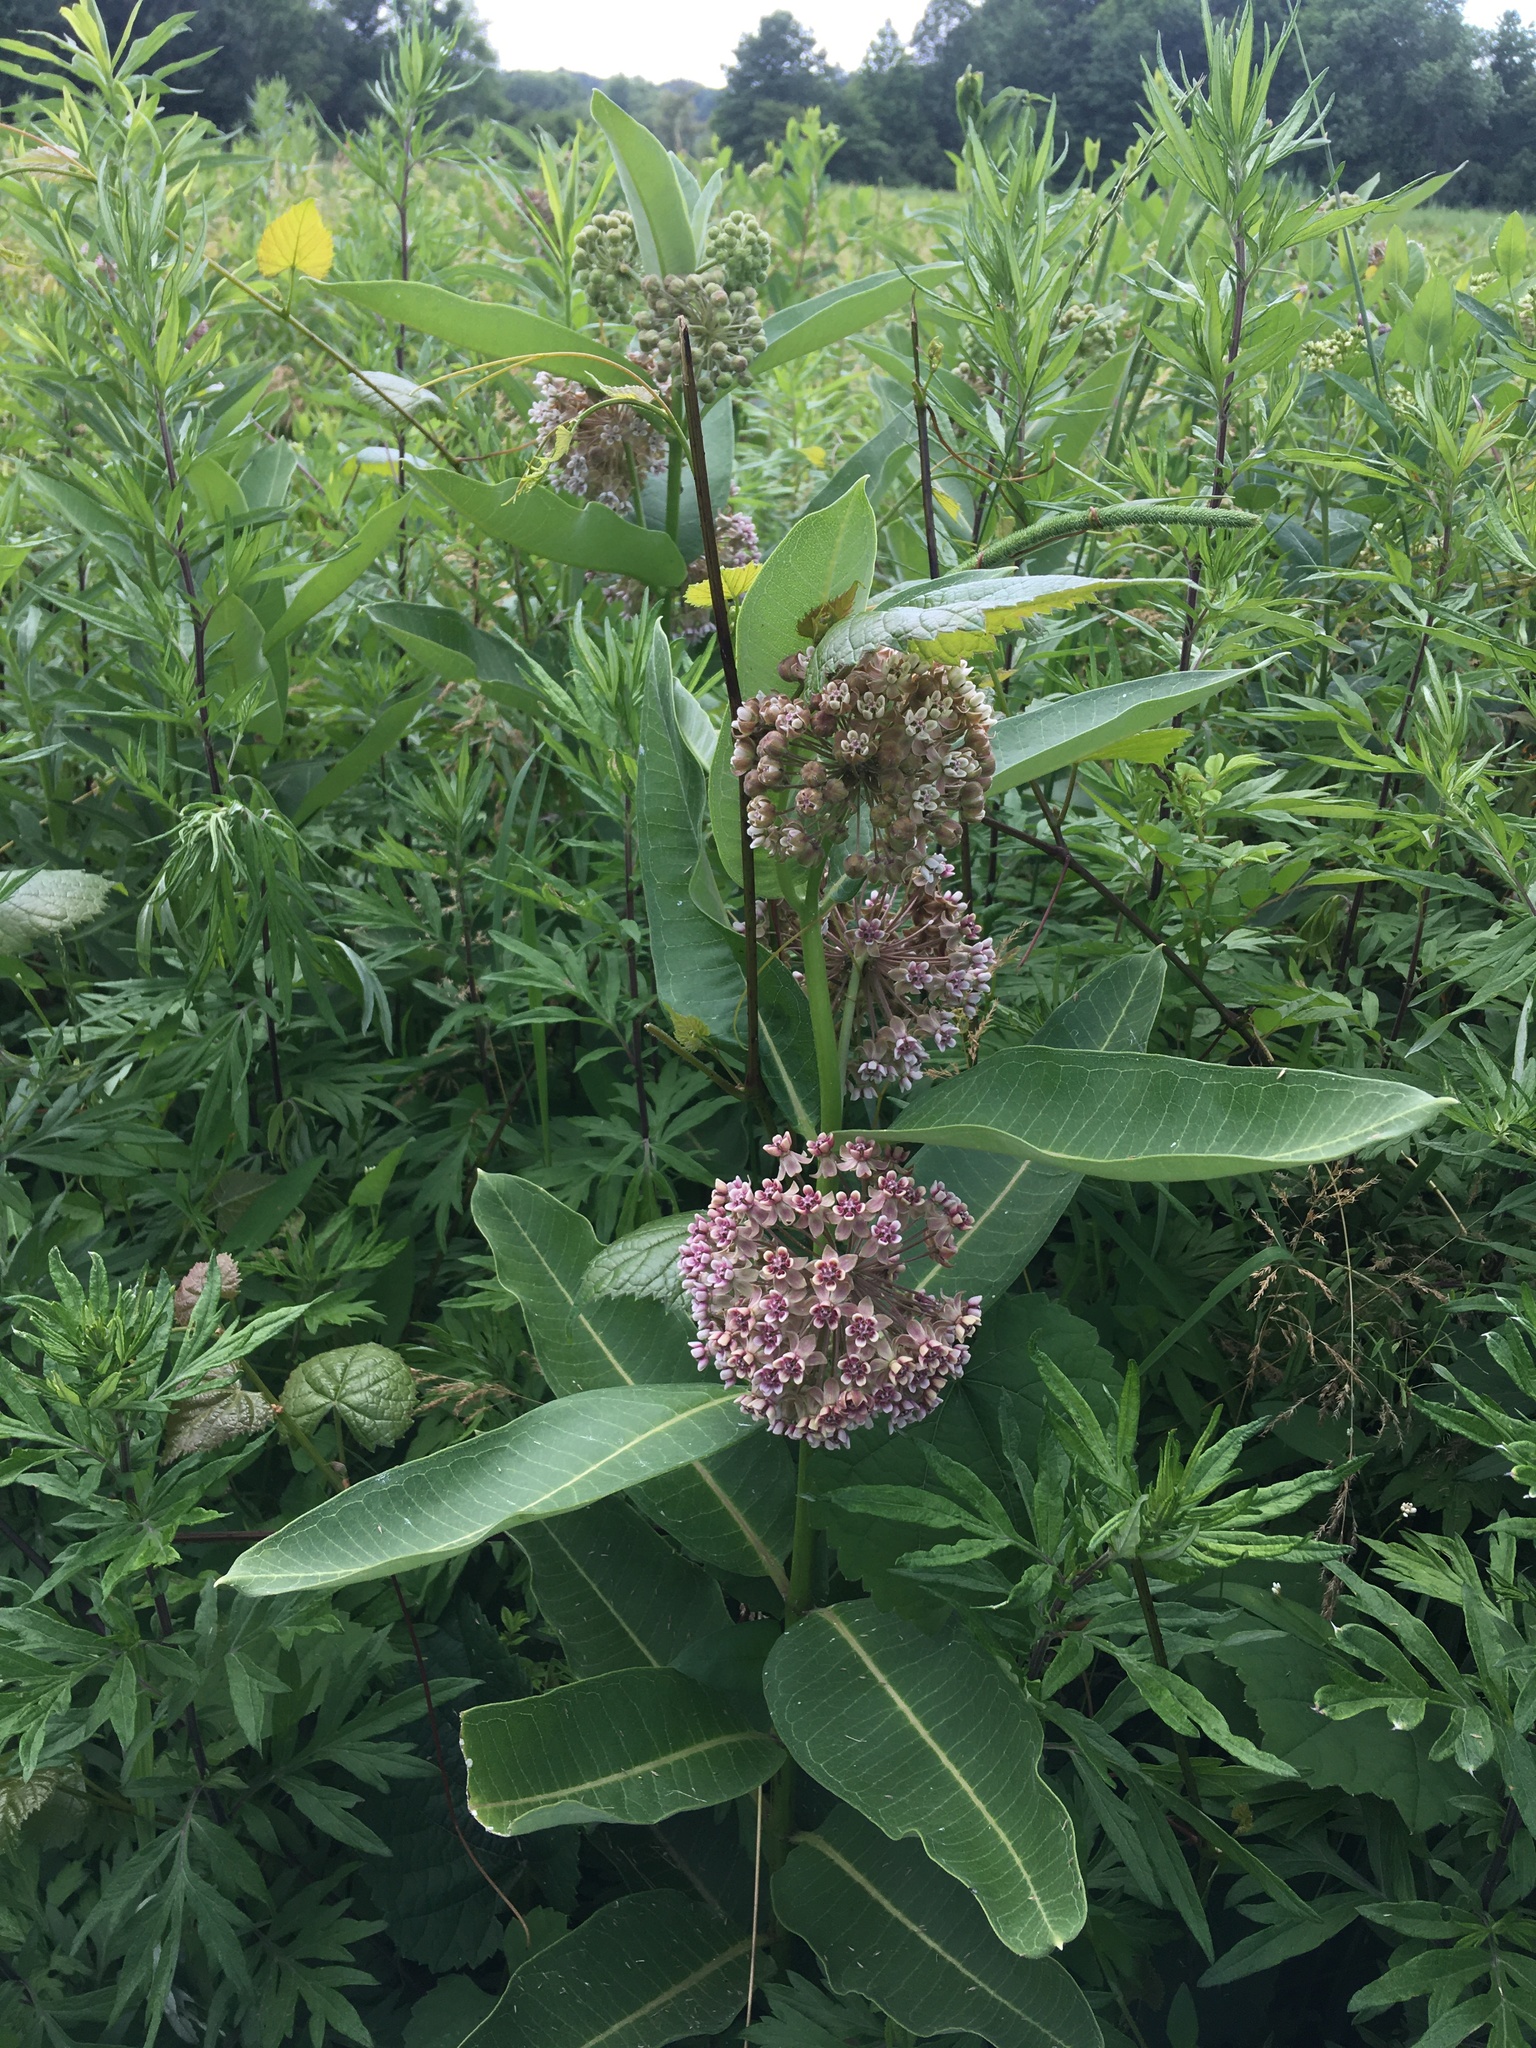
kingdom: Plantae
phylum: Tracheophyta
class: Magnoliopsida
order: Gentianales
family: Apocynaceae
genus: Asclepias
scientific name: Asclepias syriaca
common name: Common milkweed
